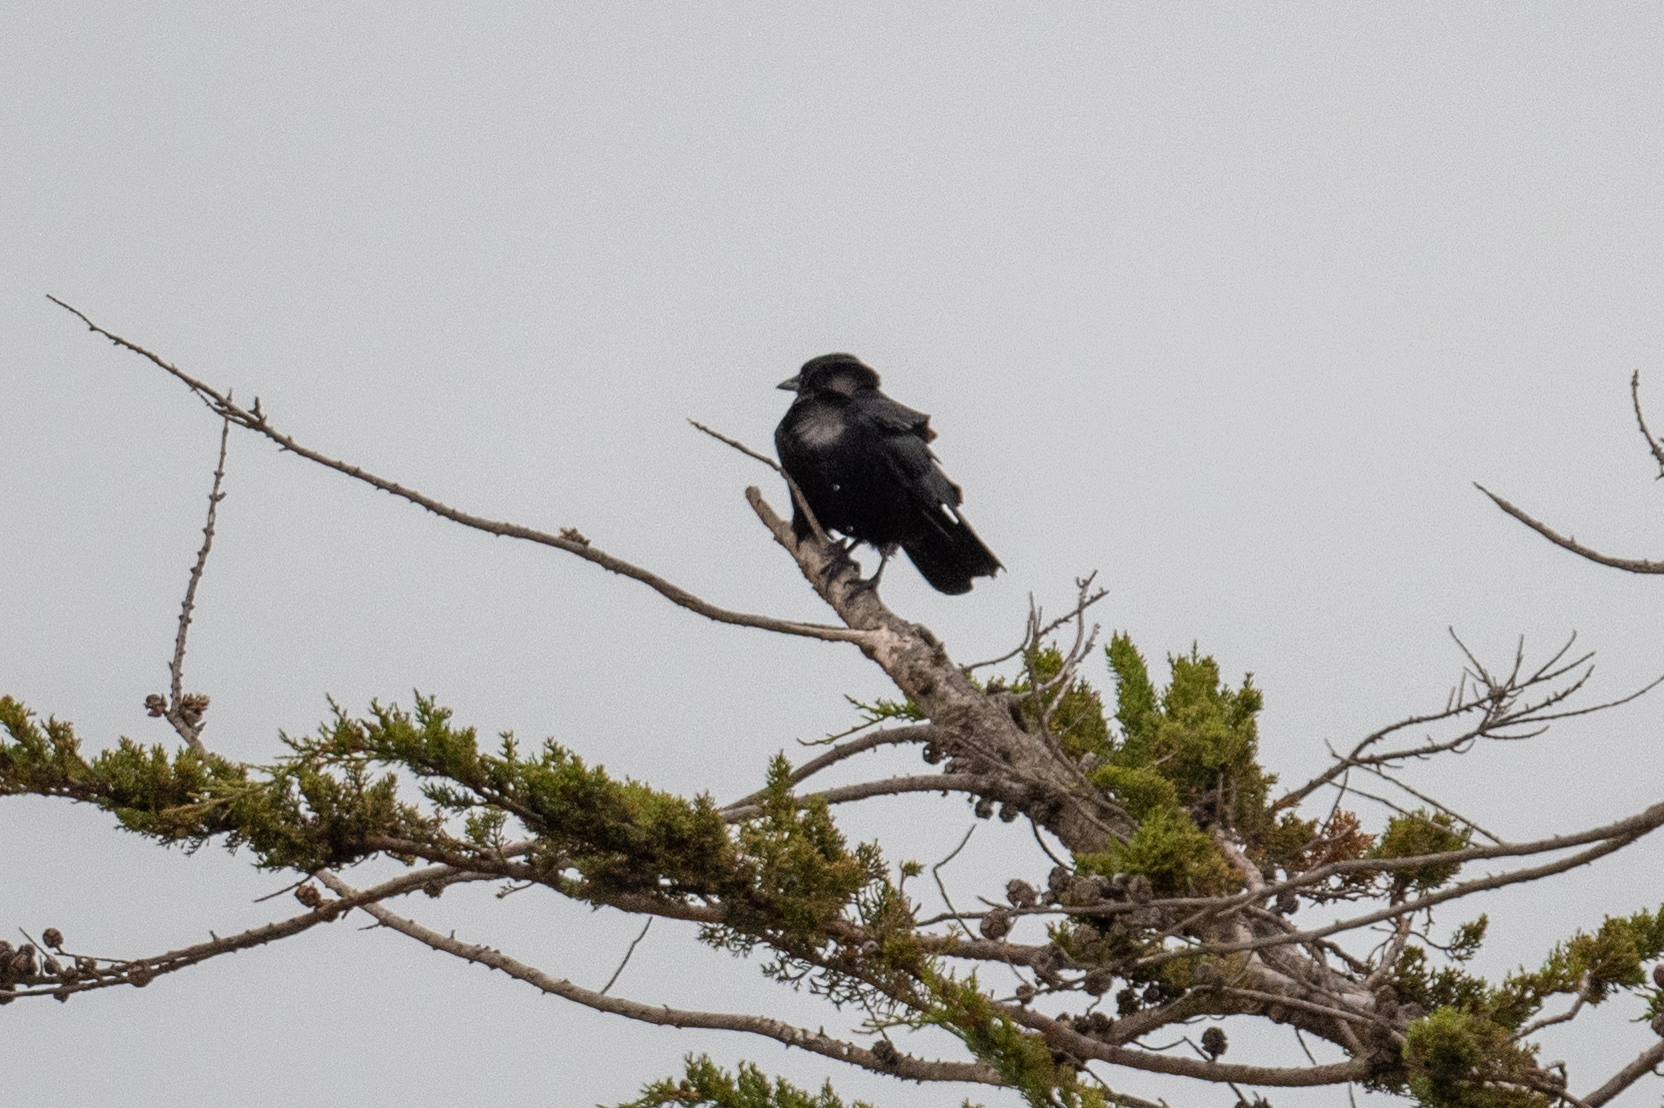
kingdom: Animalia
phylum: Chordata
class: Aves
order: Passeriformes
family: Corvidae
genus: Corvus
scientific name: Corvus brachyrhynchos
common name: American crow
